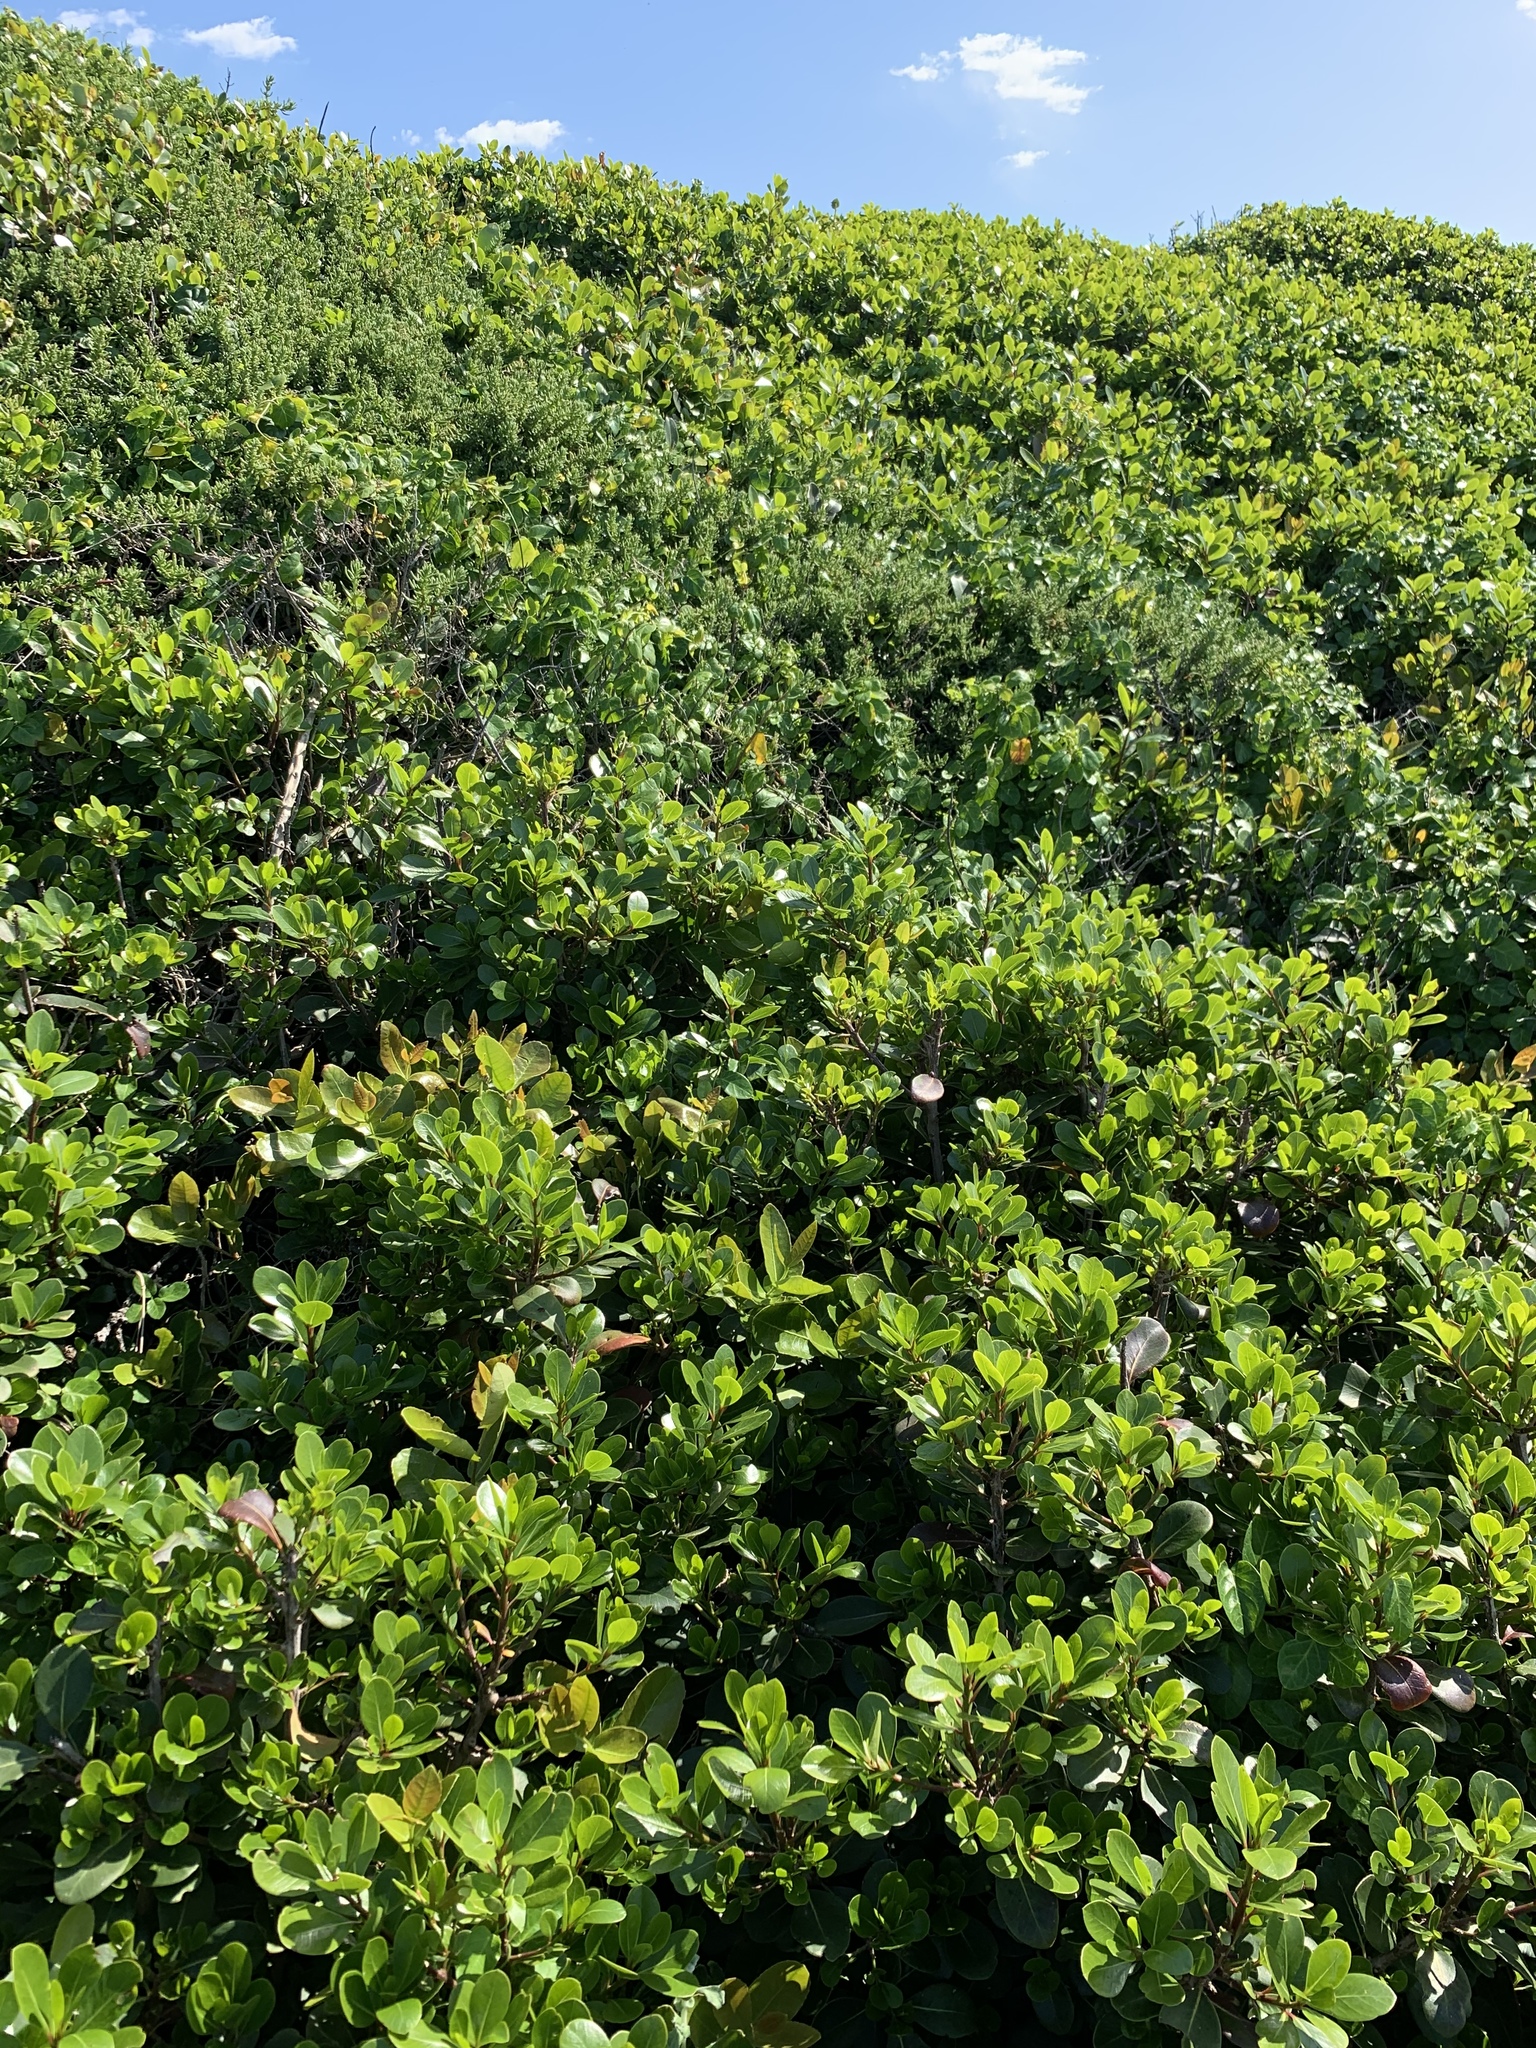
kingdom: Plantae
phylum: Tracheophyta
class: Magnoliopsida
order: Ericales
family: Sapotaceae
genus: Sideroxylon
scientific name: Sideroxylon inerme
